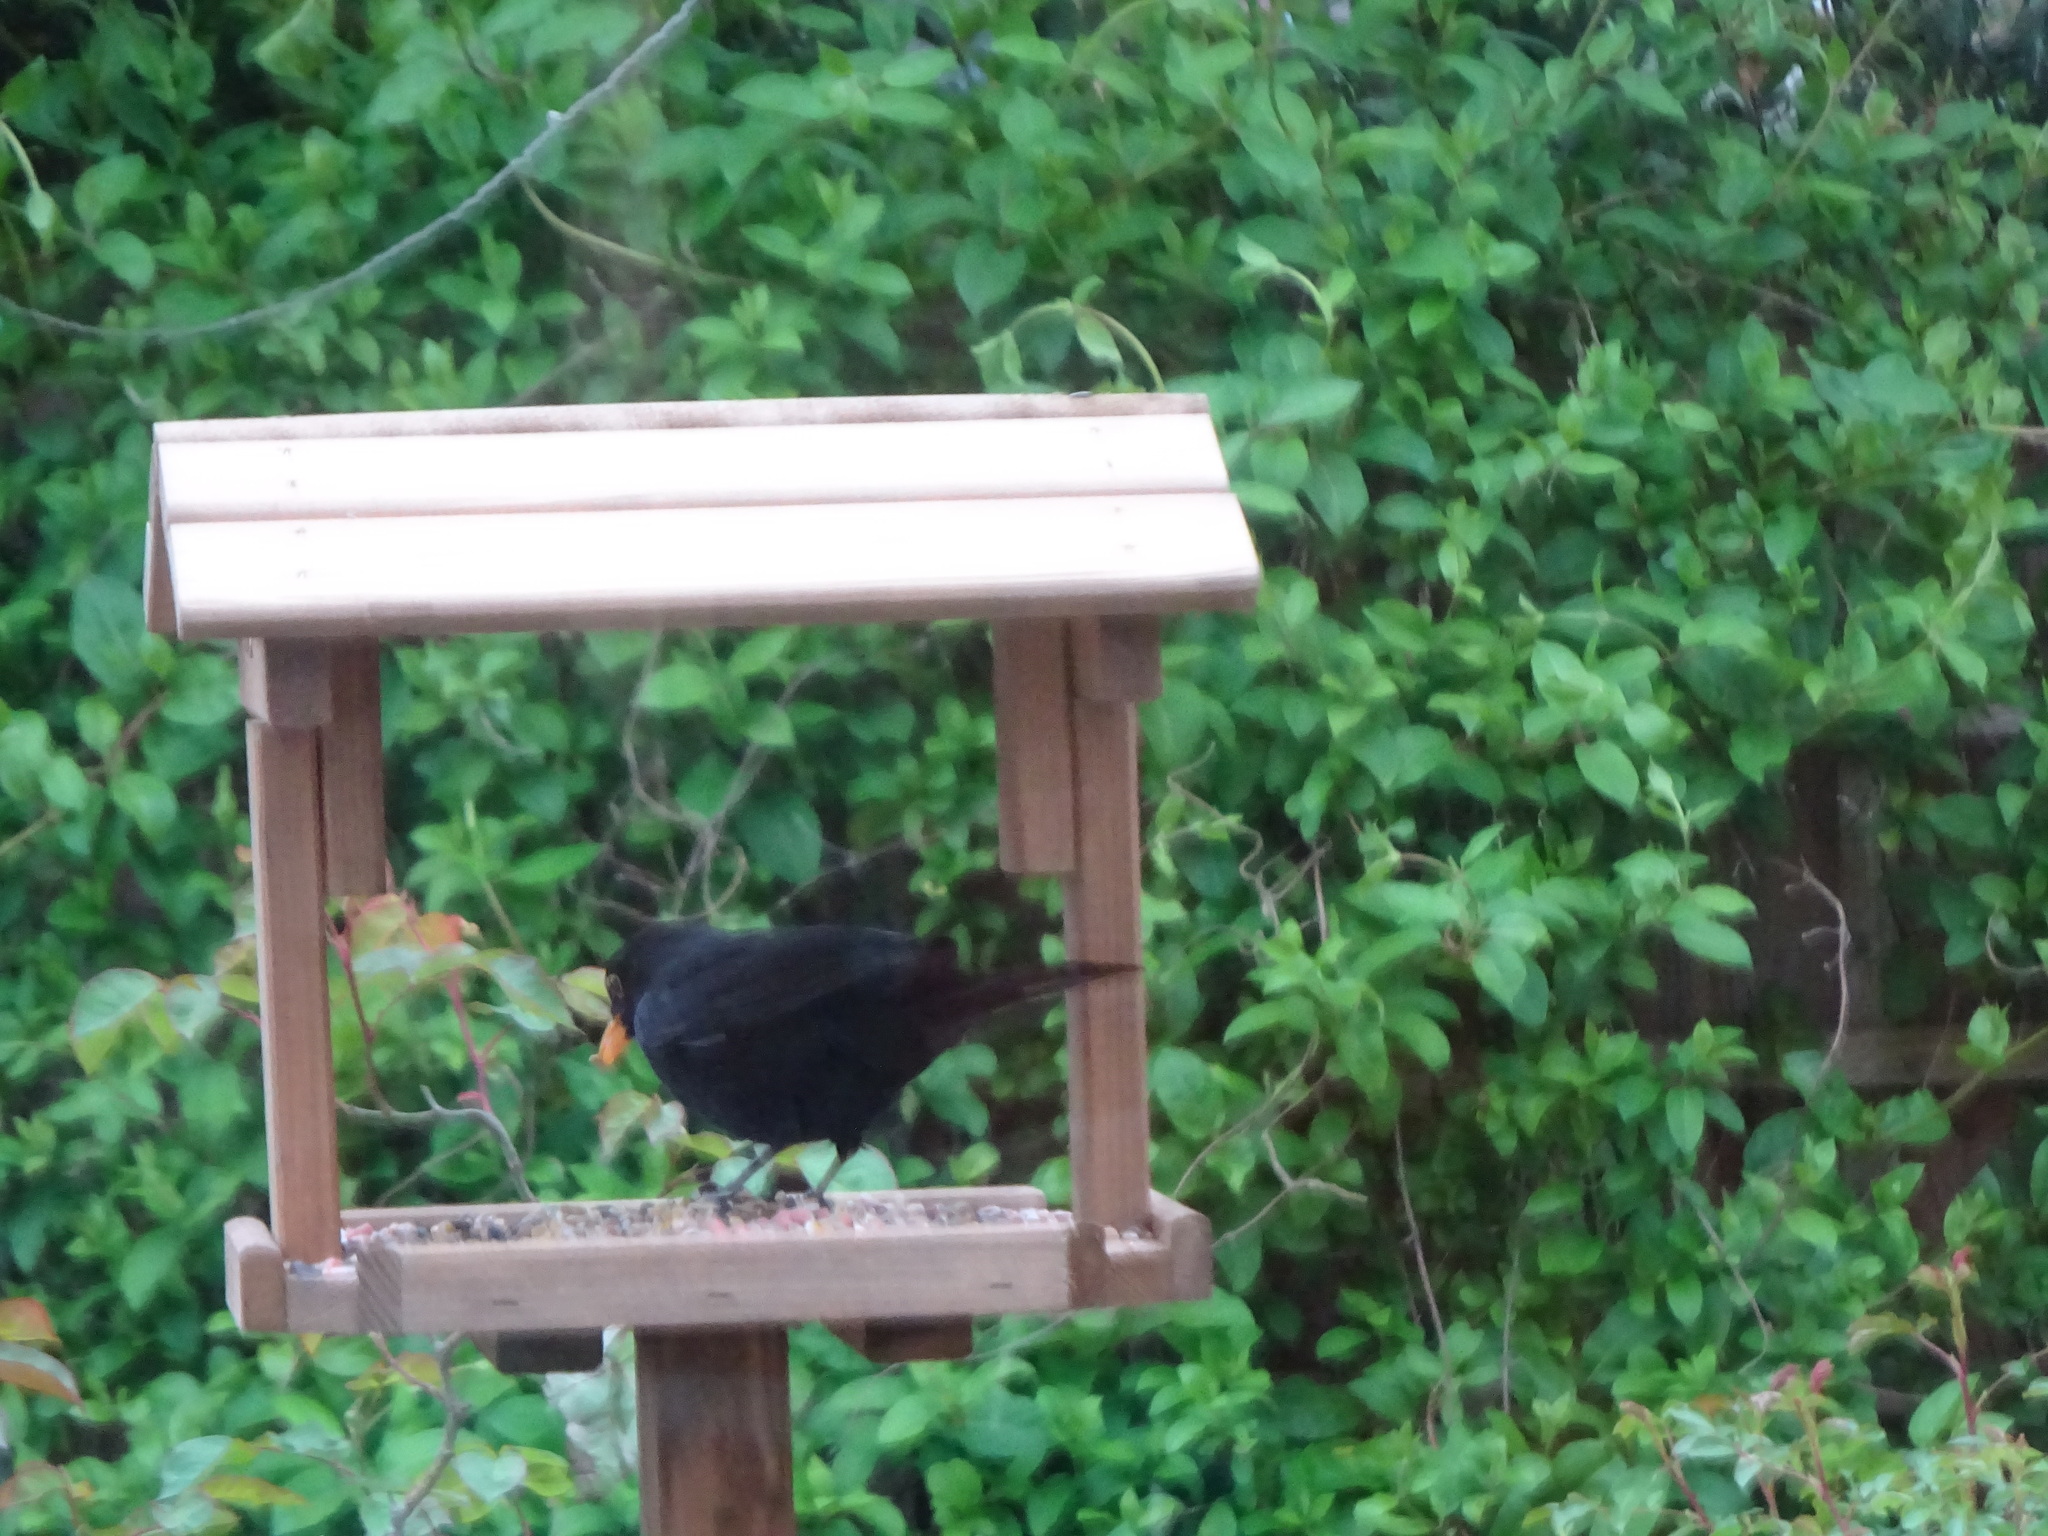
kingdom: Animalia
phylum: Chordata
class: Aves
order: Passeriformes
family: Turdidae
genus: Turdus
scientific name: Turdus merula
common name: Common blackbird
